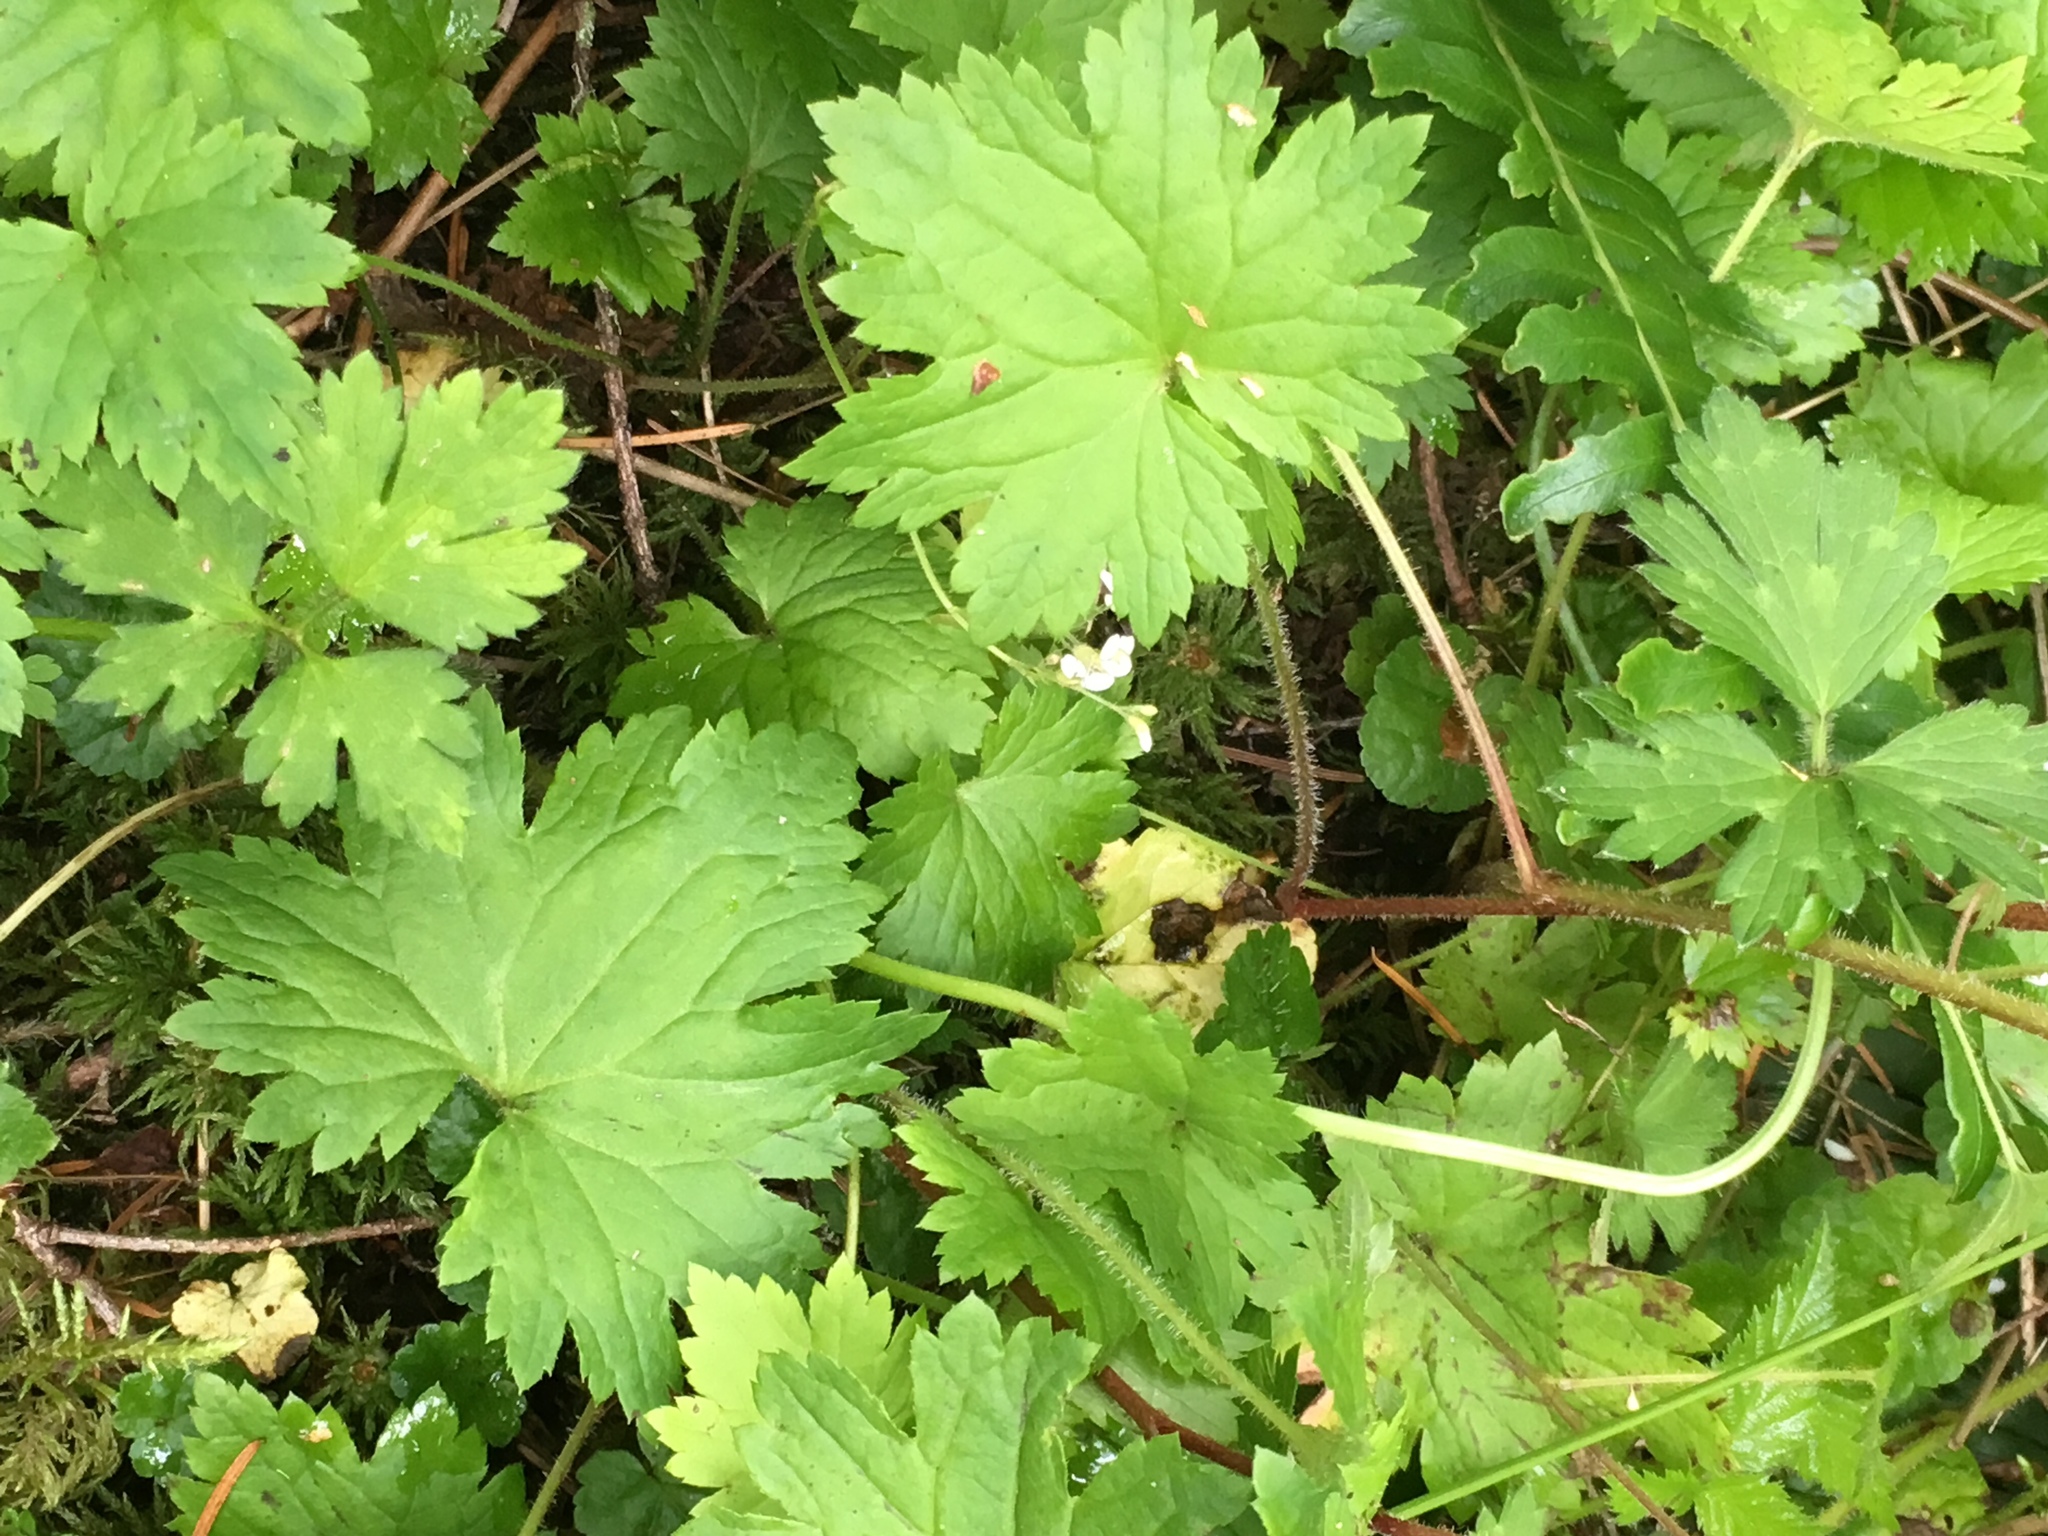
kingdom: Plantae
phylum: Tracheophyta
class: Magnoliopsida
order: Saxifragales
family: Saxifragaceae
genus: Boykinia
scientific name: Boykinia occidentalis
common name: Coast boykinia
